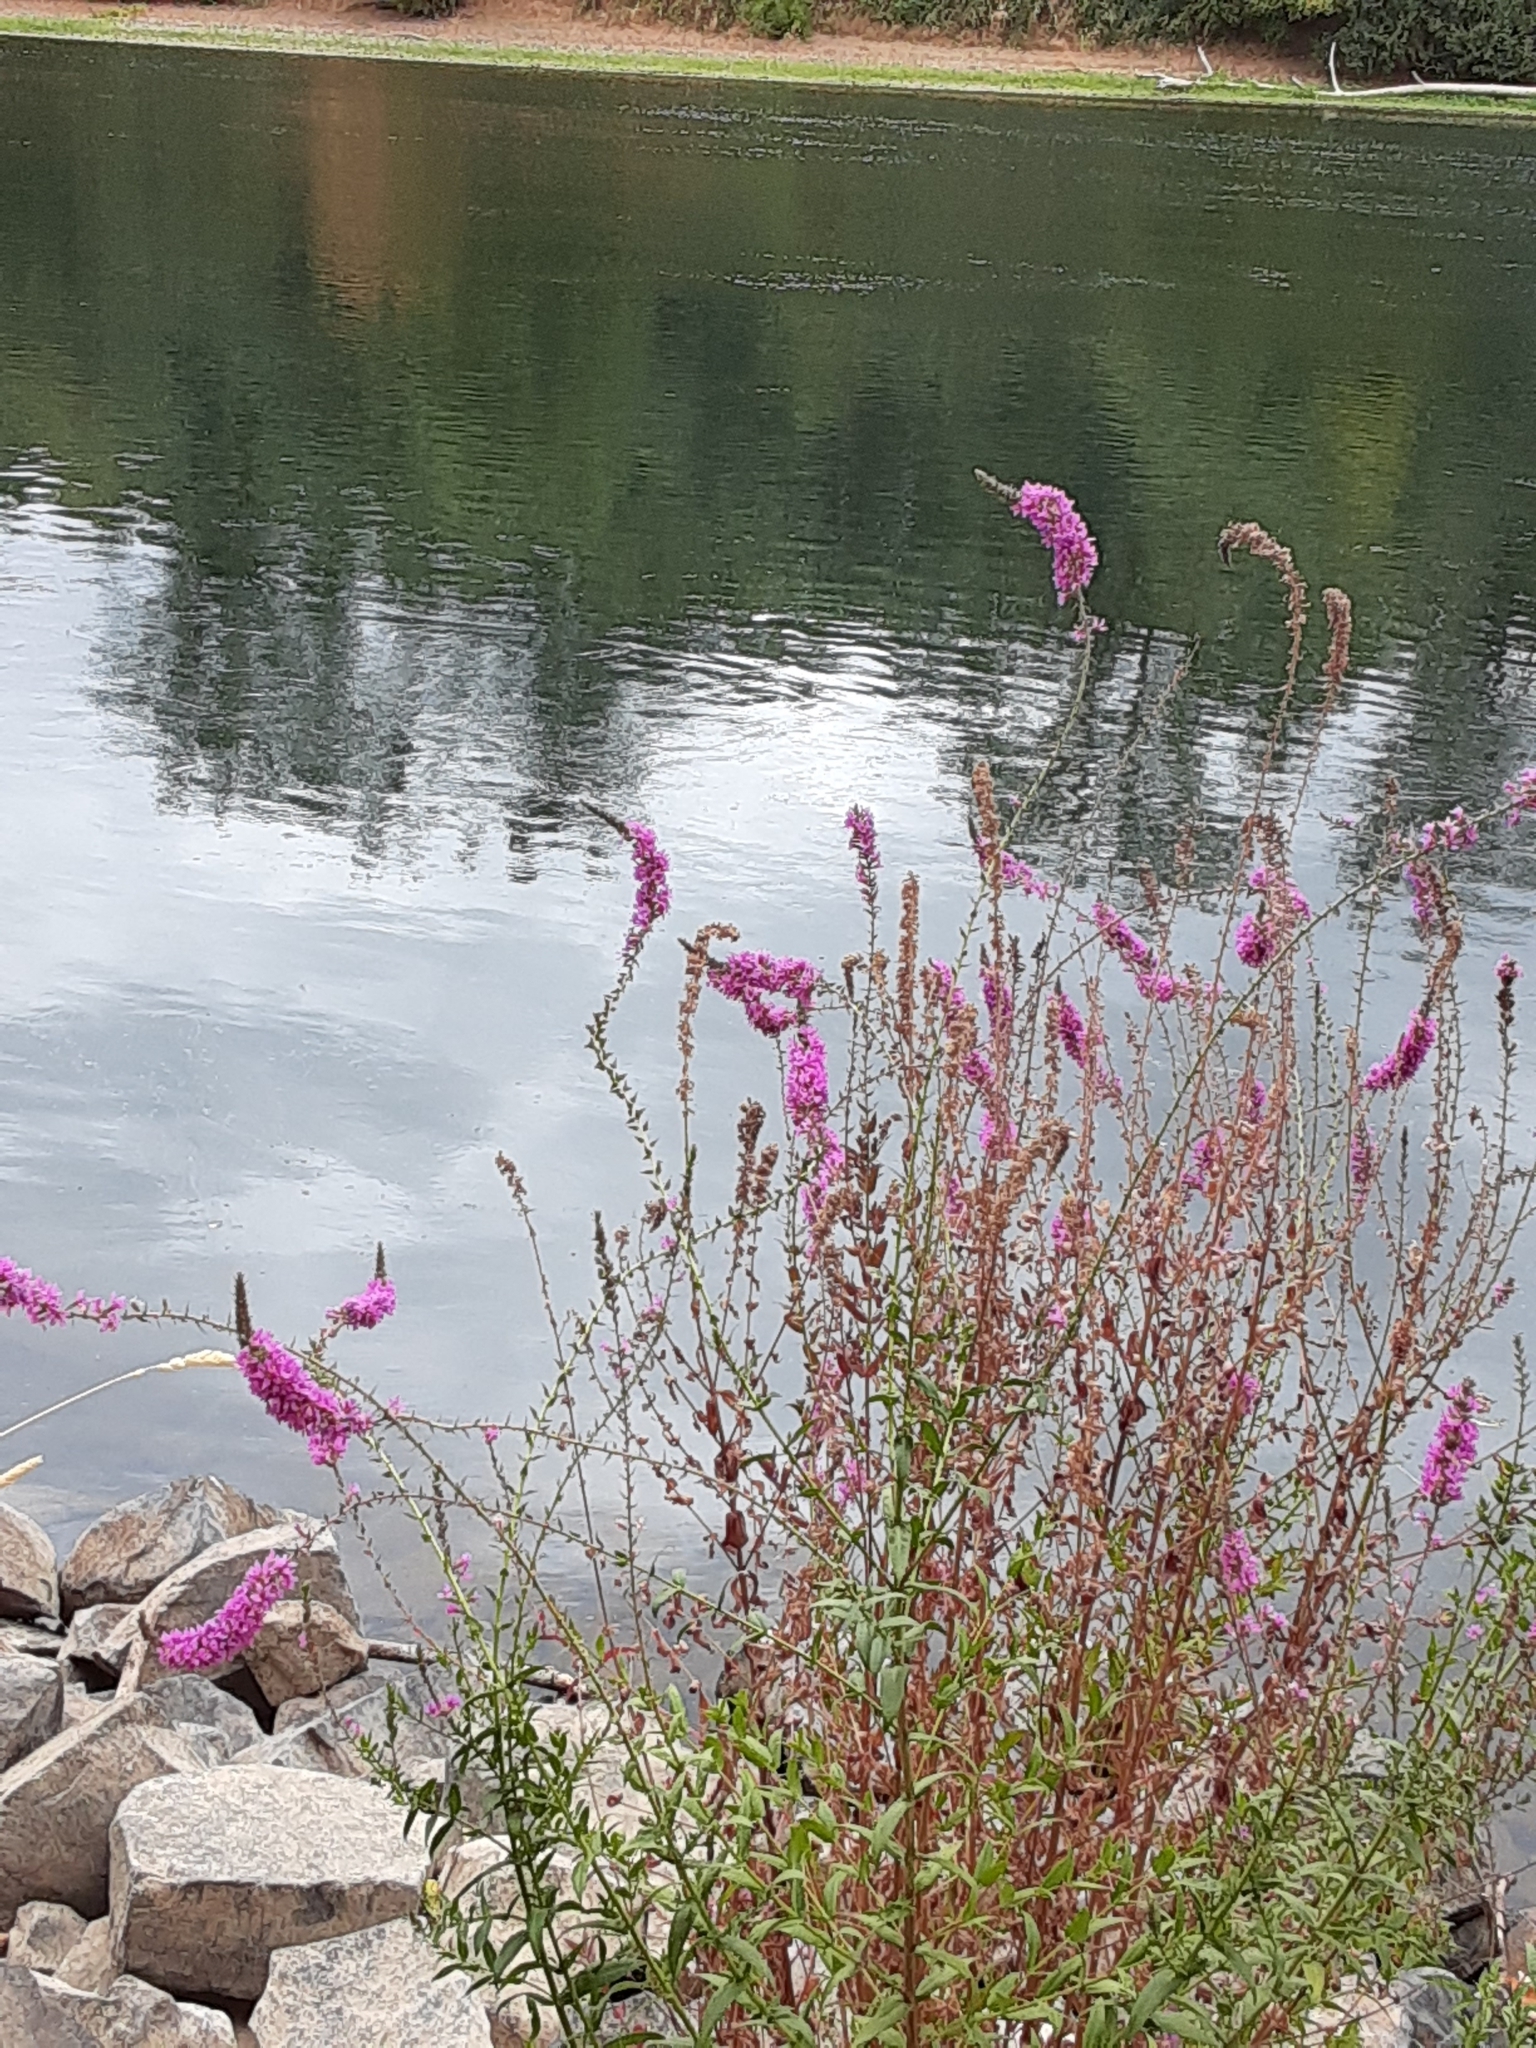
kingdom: Plantae
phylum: Tracheophyta
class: Magnoliopsida
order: Myrtales
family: Lythraceae
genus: Lythrum
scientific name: Lythrum salicaria
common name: Purple loosestrife
